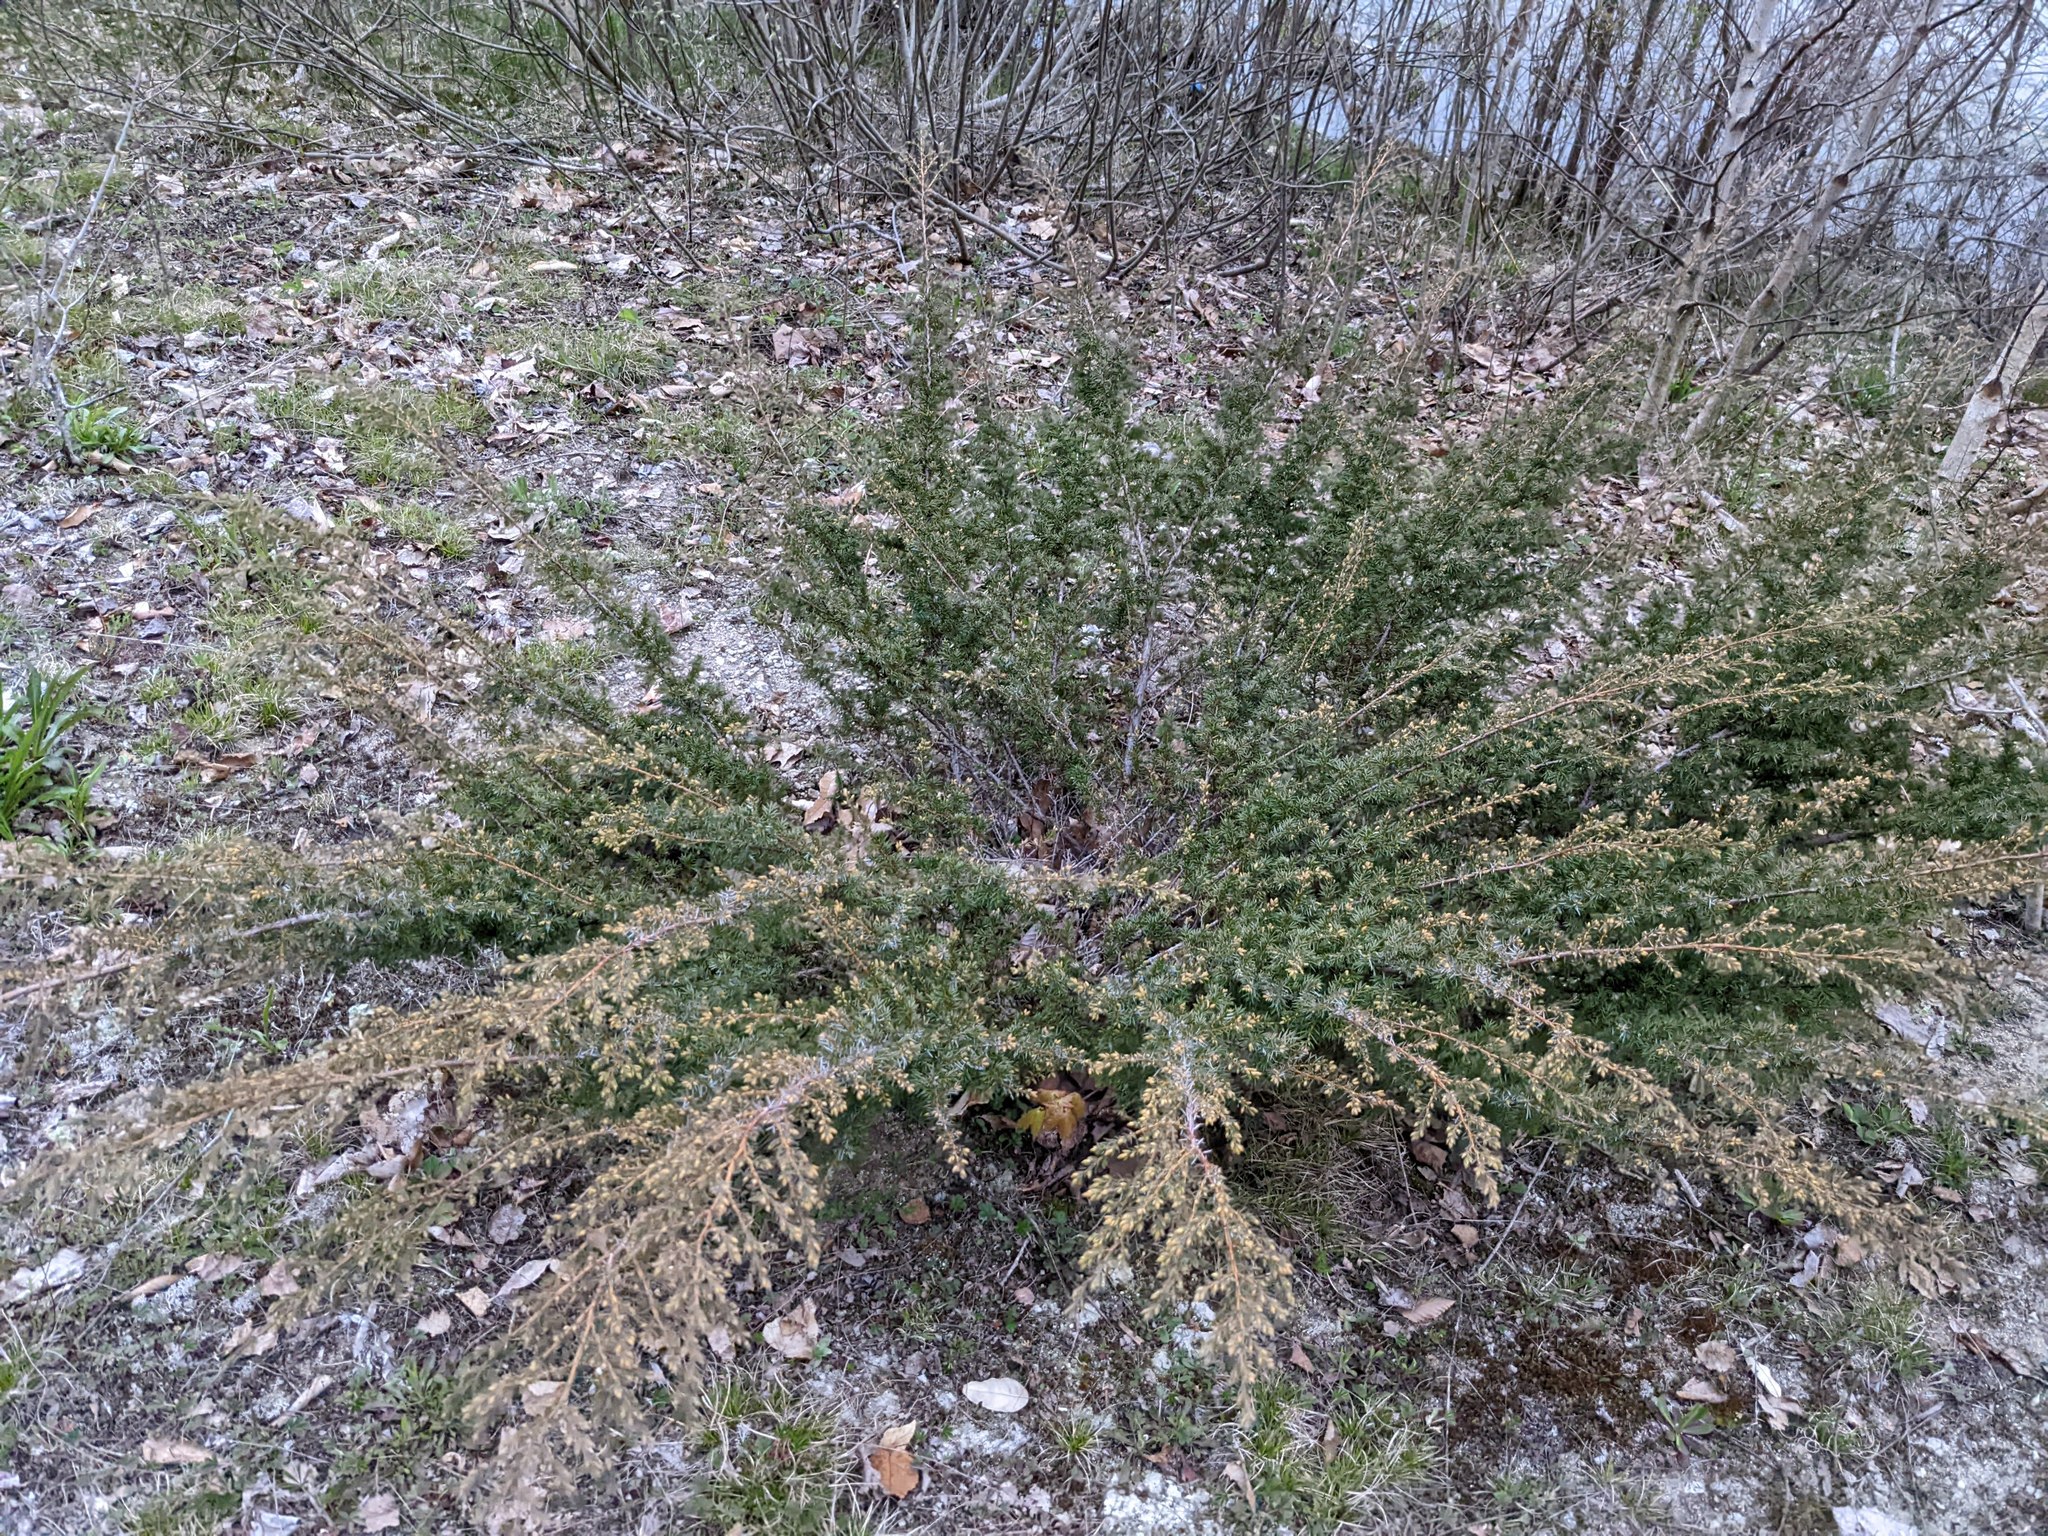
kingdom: Plantae
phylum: Tracheophyta
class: Pinopsida
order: Pinales
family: Cupressaceae
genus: Juniperus
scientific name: Juniperus communis
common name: Common juniper
